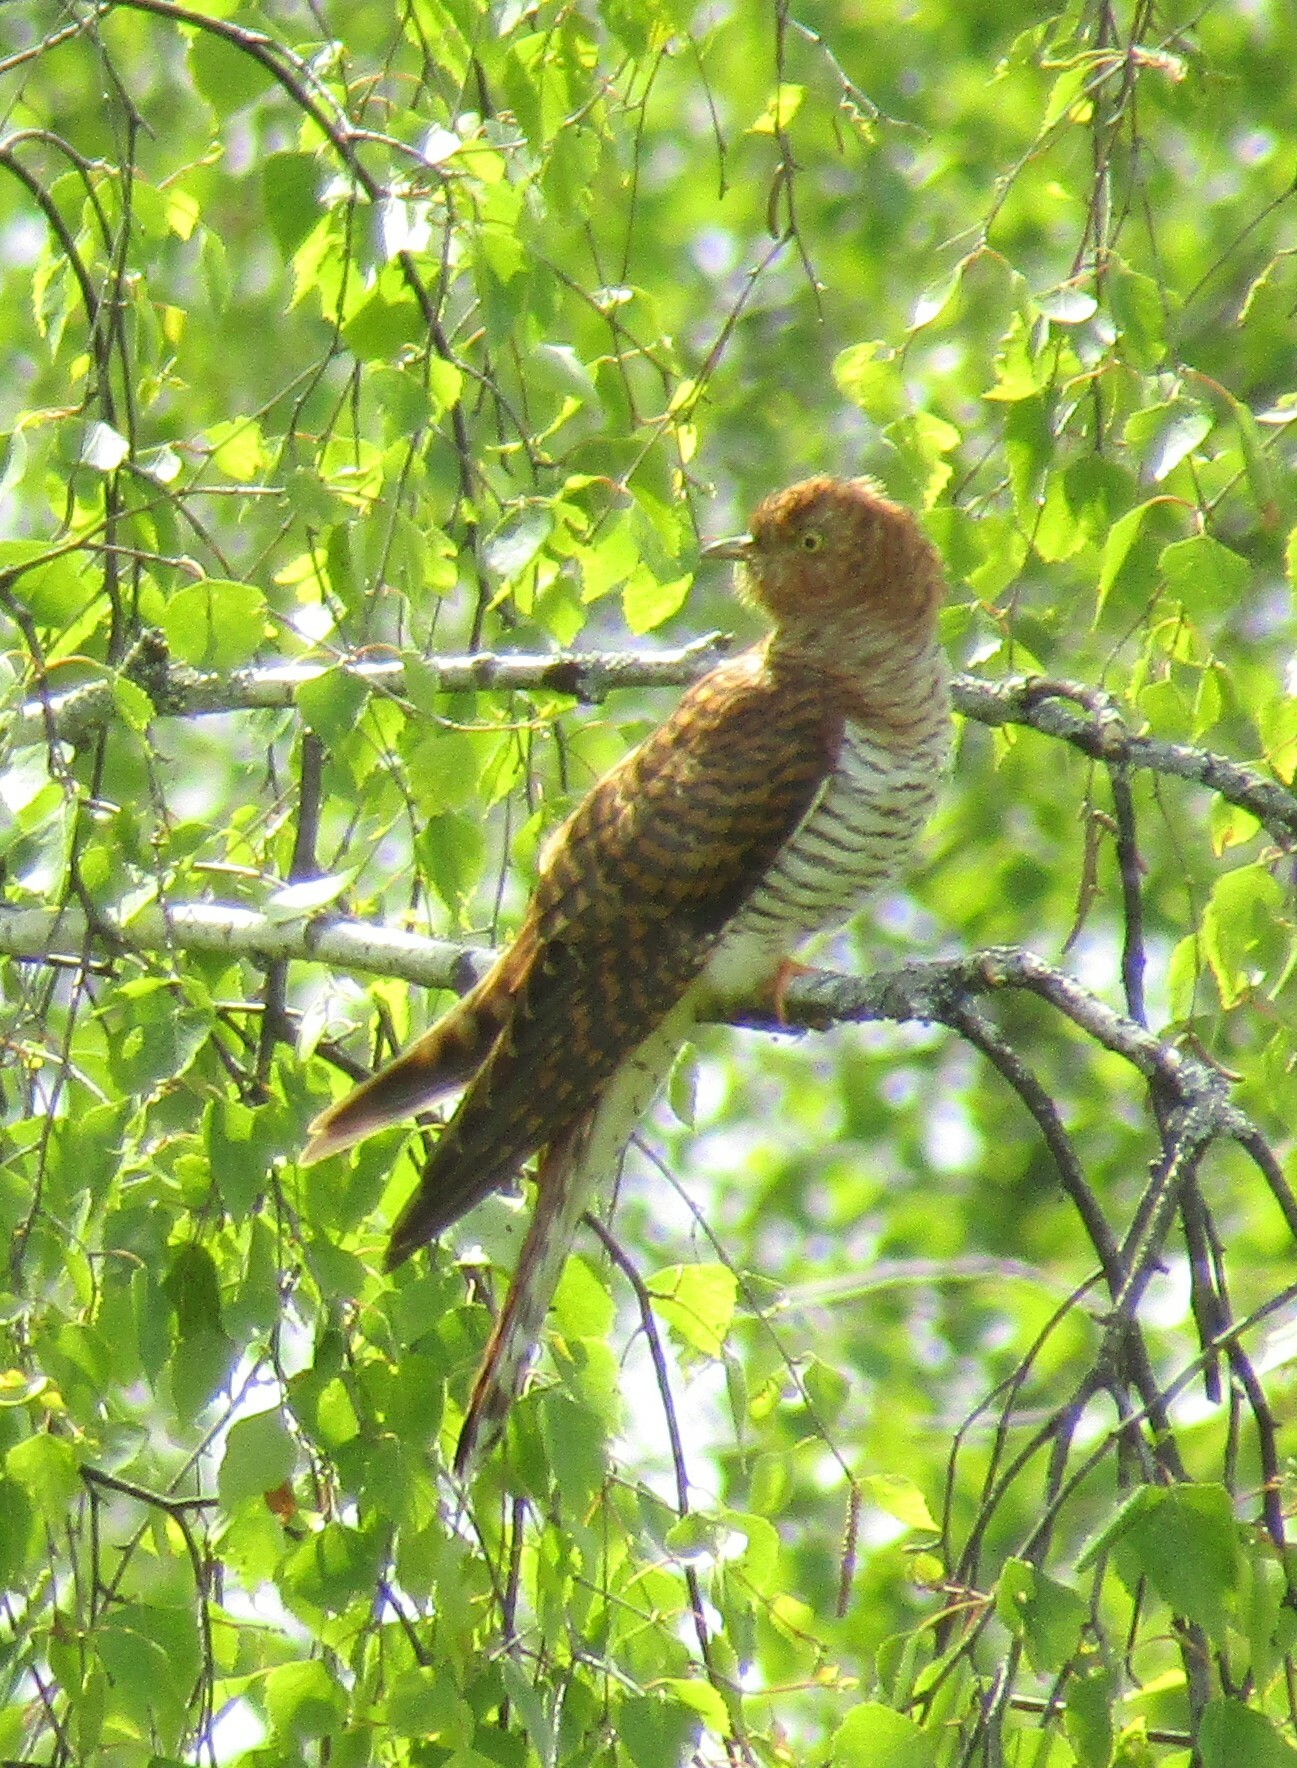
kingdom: Animalia
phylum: Chordata
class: Aves
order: Cuculiformes
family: Cuculidae
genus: Cuculus
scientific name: Cuculus canorus
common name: Common cuckoo
